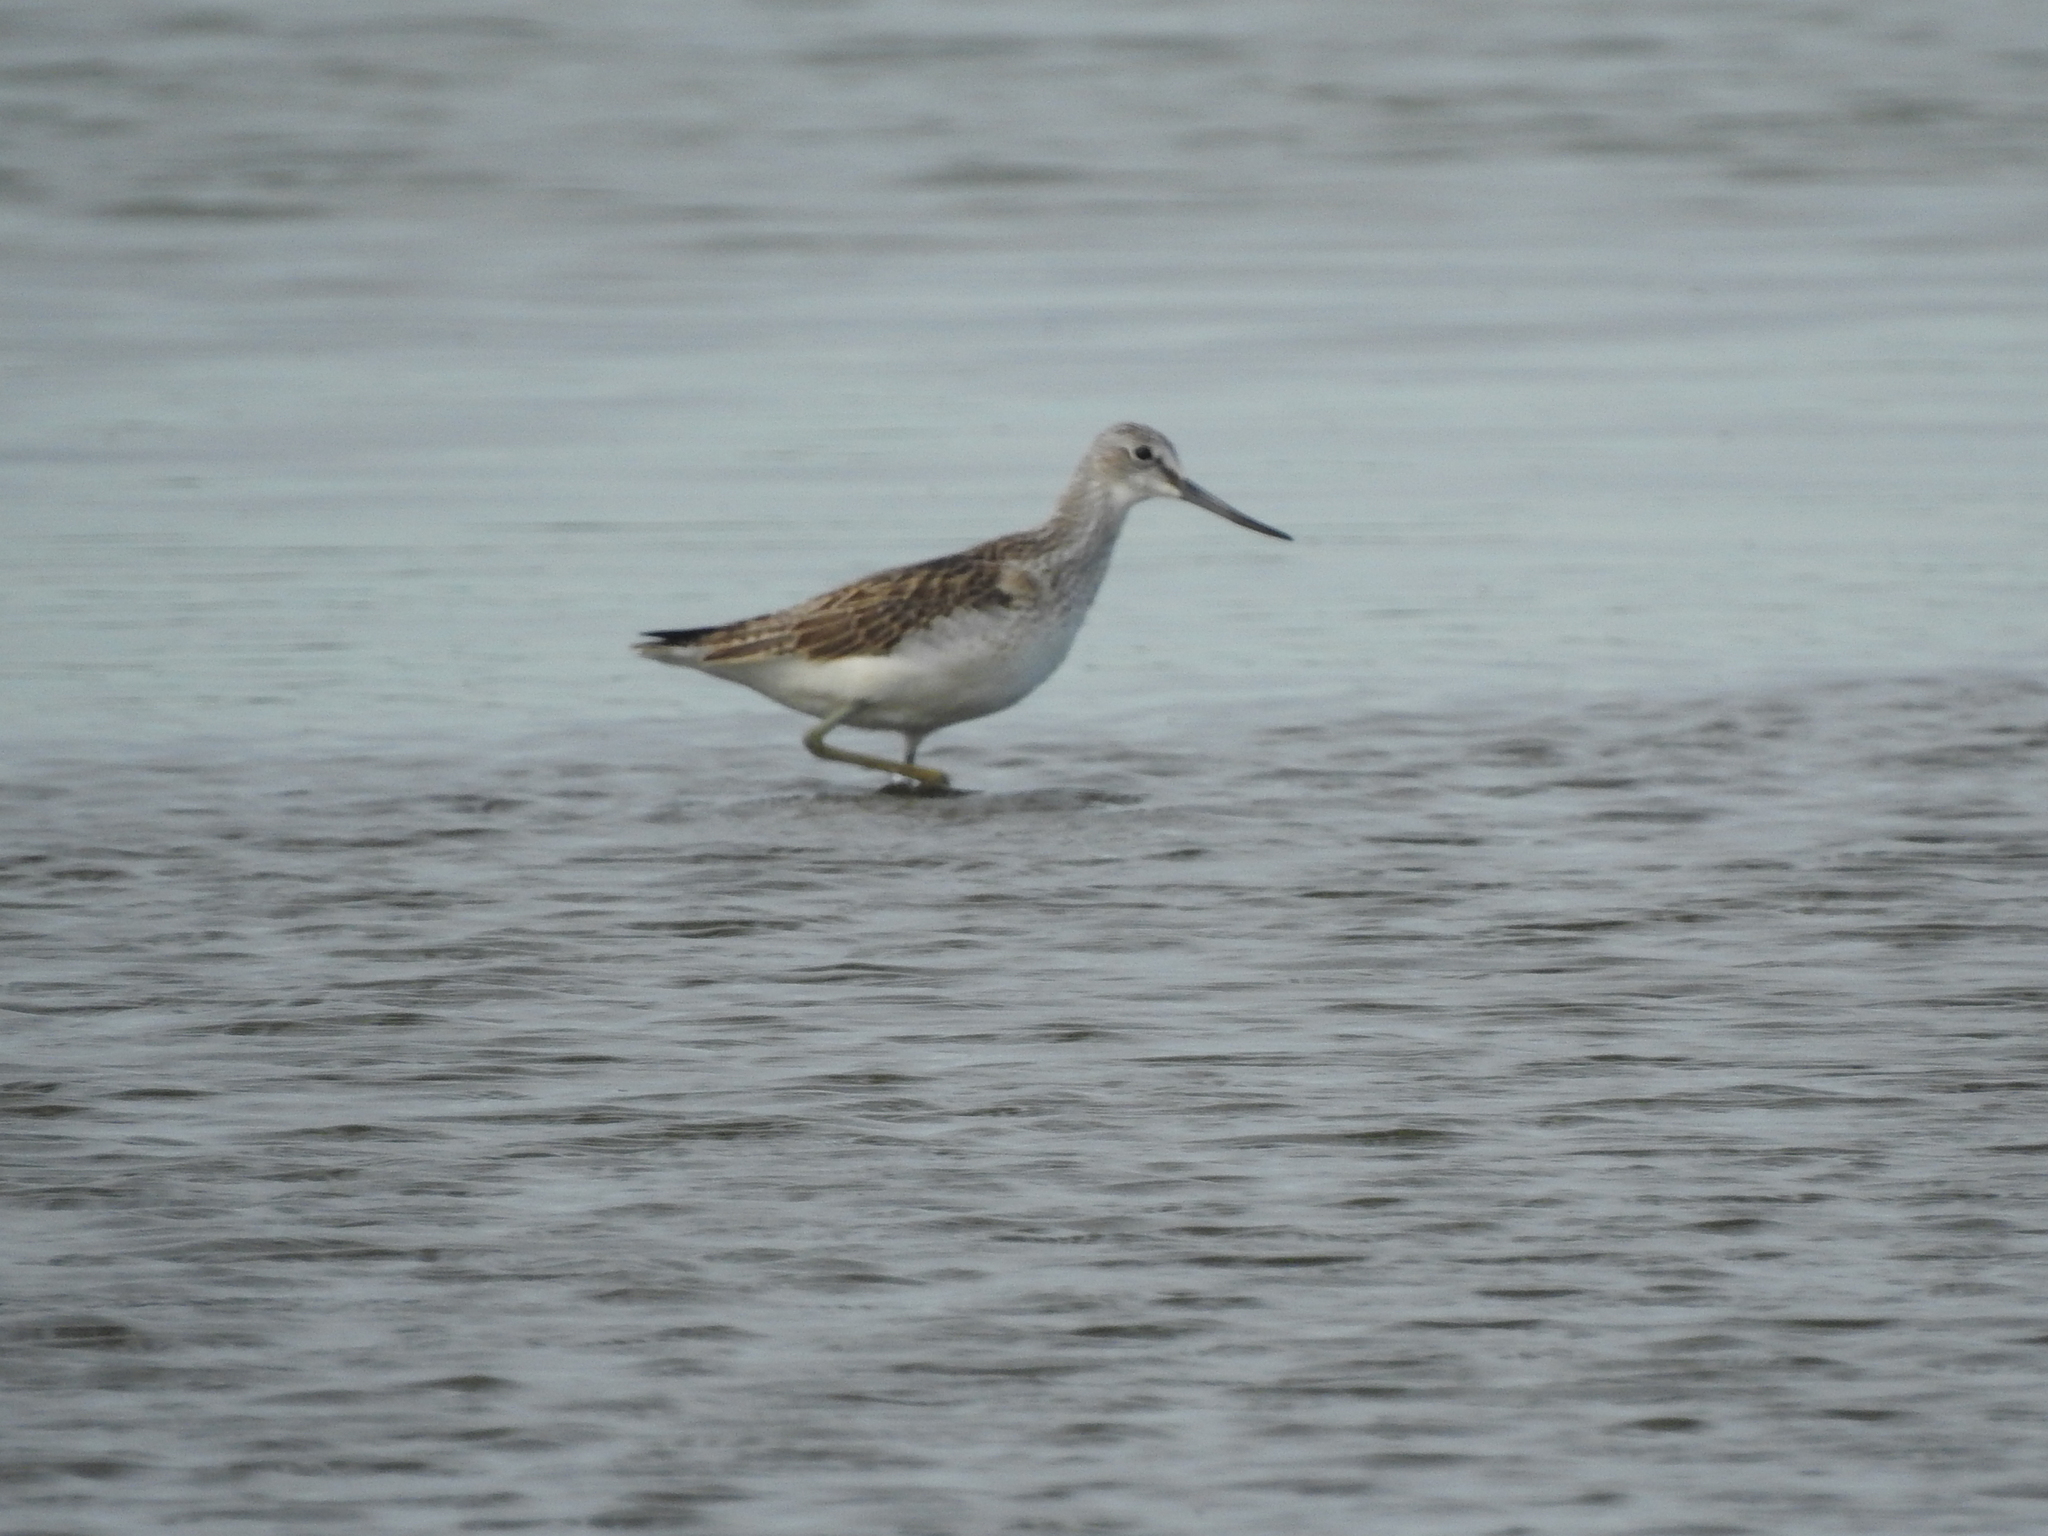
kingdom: Animalia
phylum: Chordata
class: Aves
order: Charadriiformes
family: Scolopacidae
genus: Tringa
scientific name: Tringa nebularia
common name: Common greenshank
